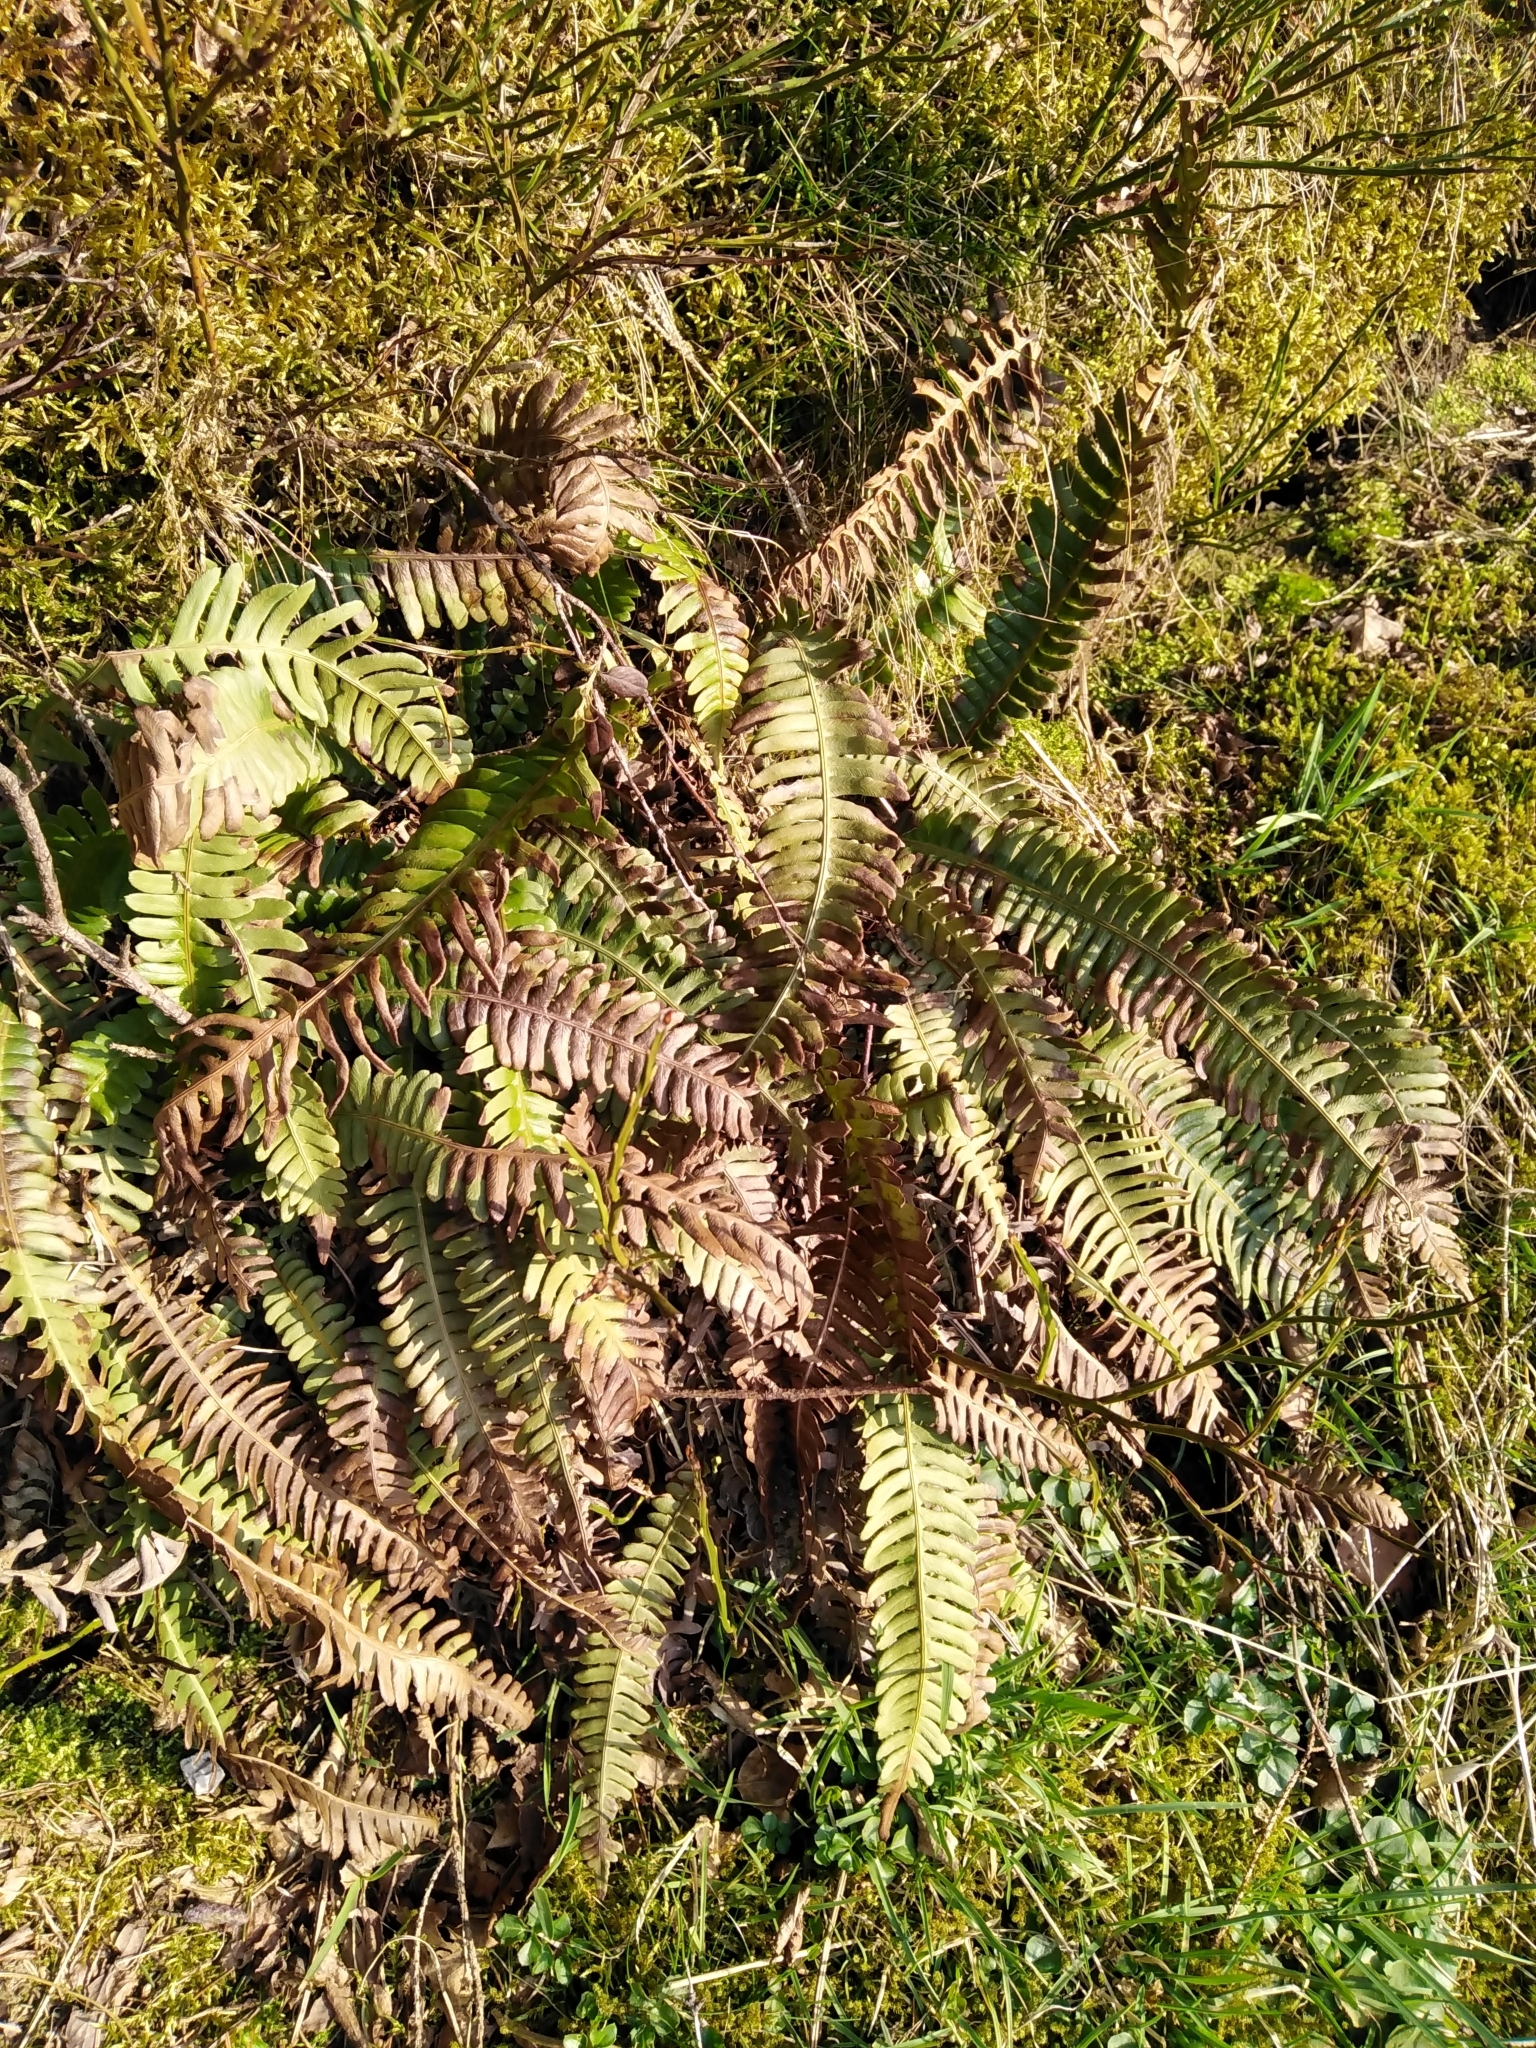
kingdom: Plantae
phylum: Tracheophyta
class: Polypodiopsida
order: Polypodiales
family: Blechnaceae
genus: Struthiopteris
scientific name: Struthiopteris spicant
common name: Deer fern
